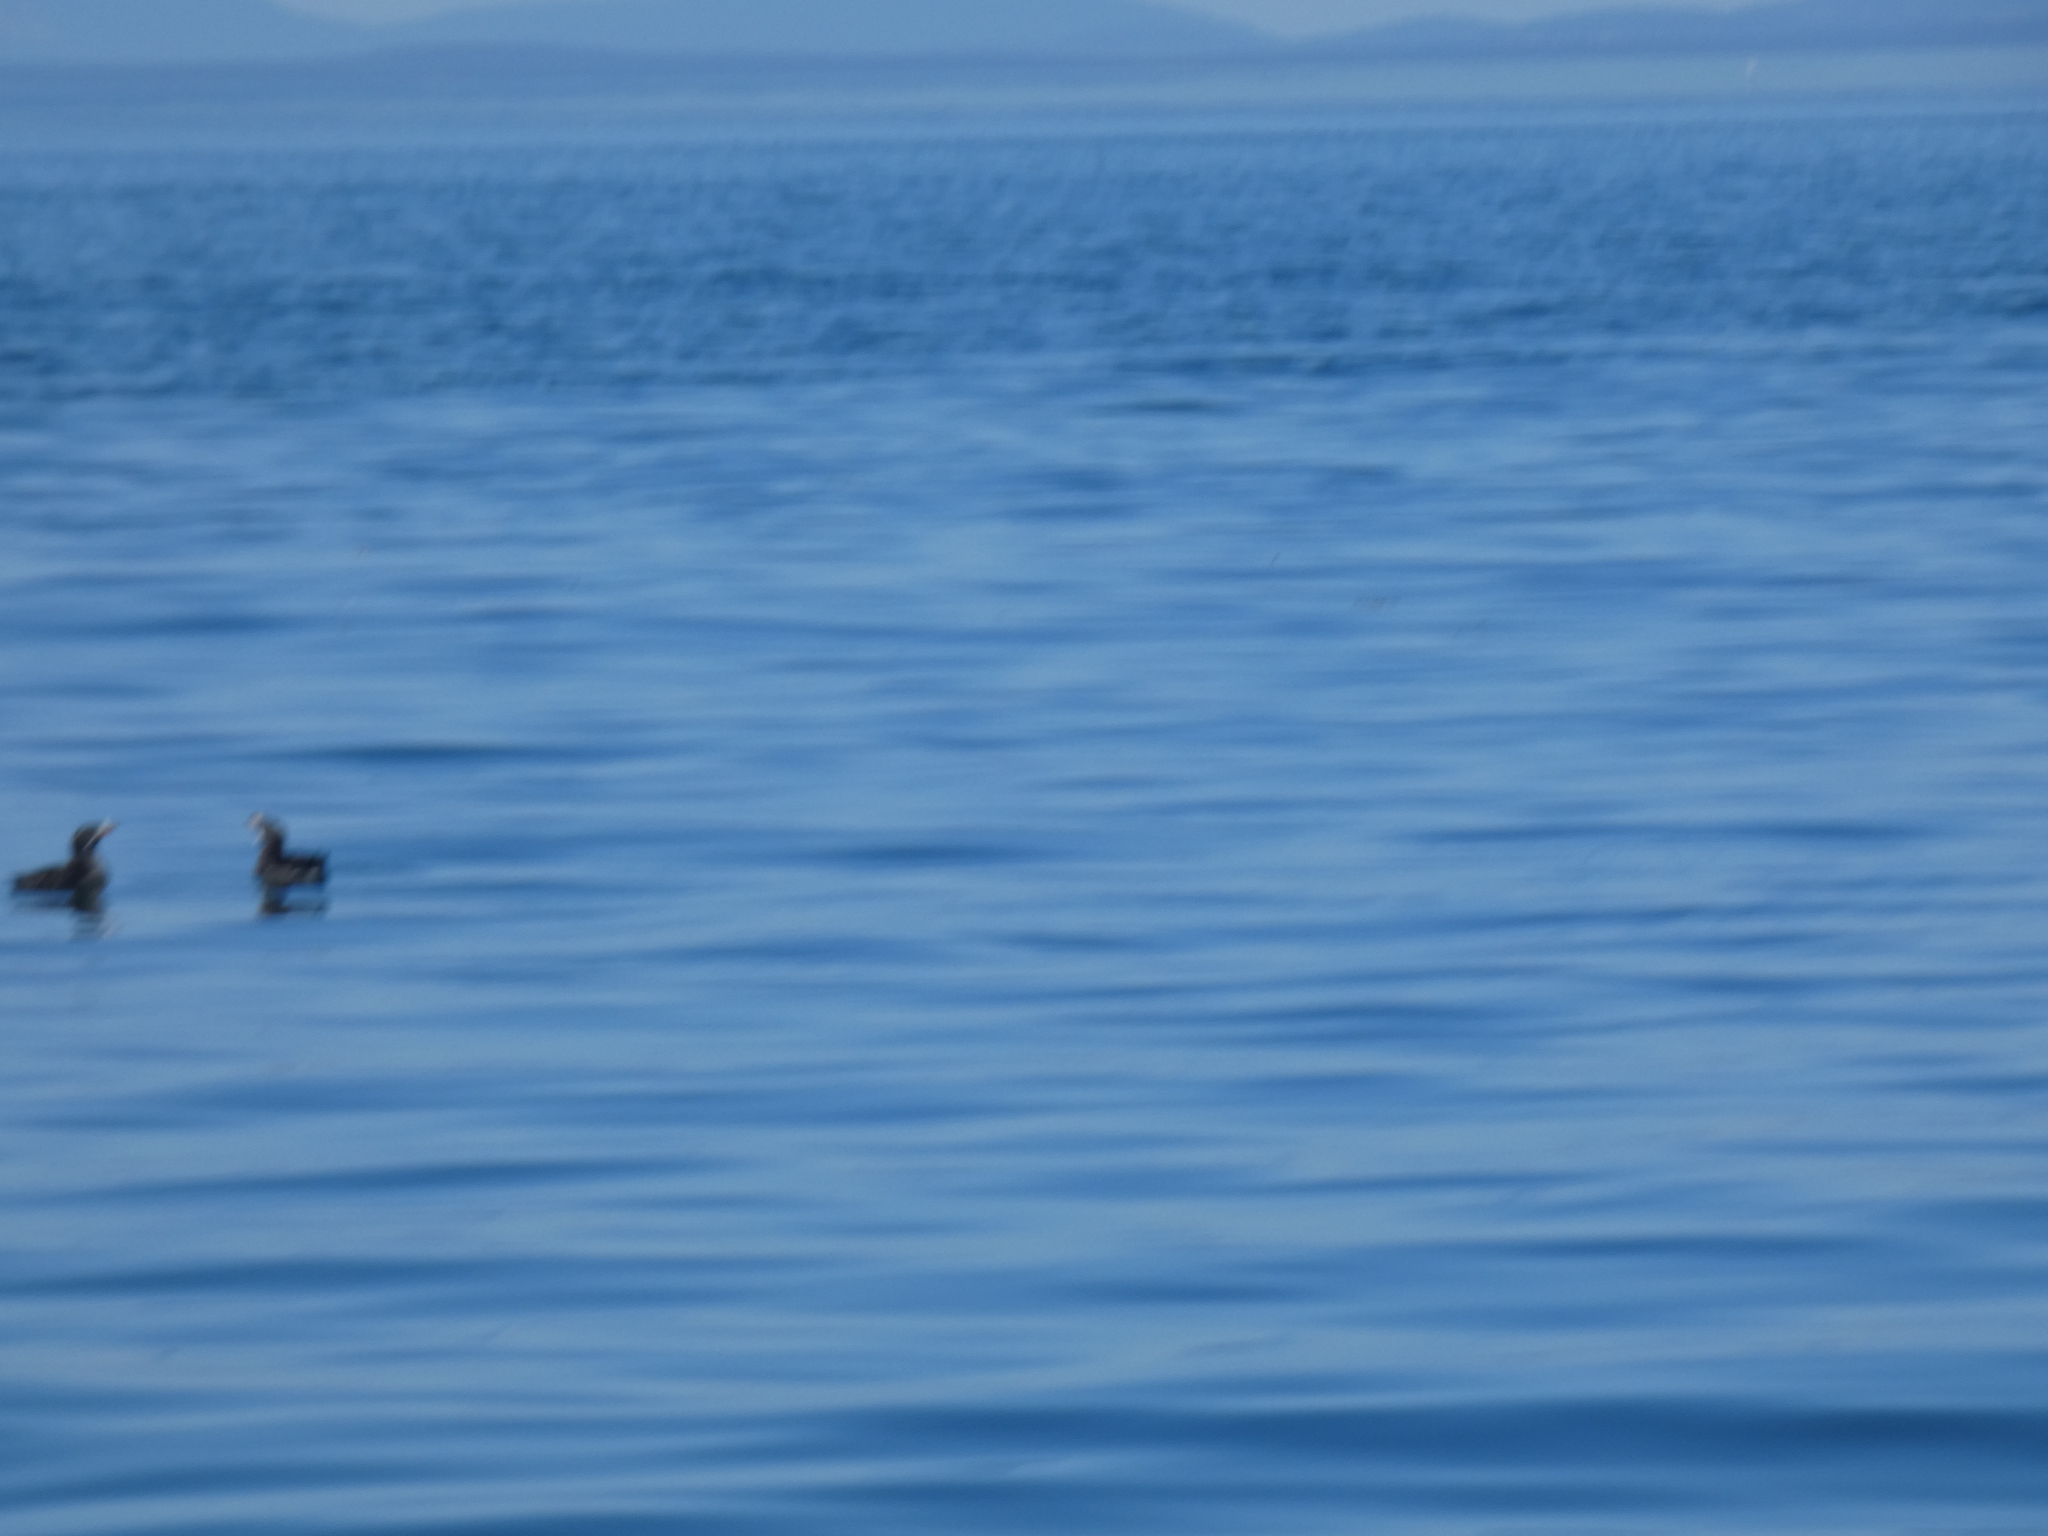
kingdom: Animalia
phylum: Chordata
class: Aves
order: Charadriiformes
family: Alcidae
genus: Cerorhinca
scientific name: Cerorhinca monocerata
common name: Rhinoceros auklet
